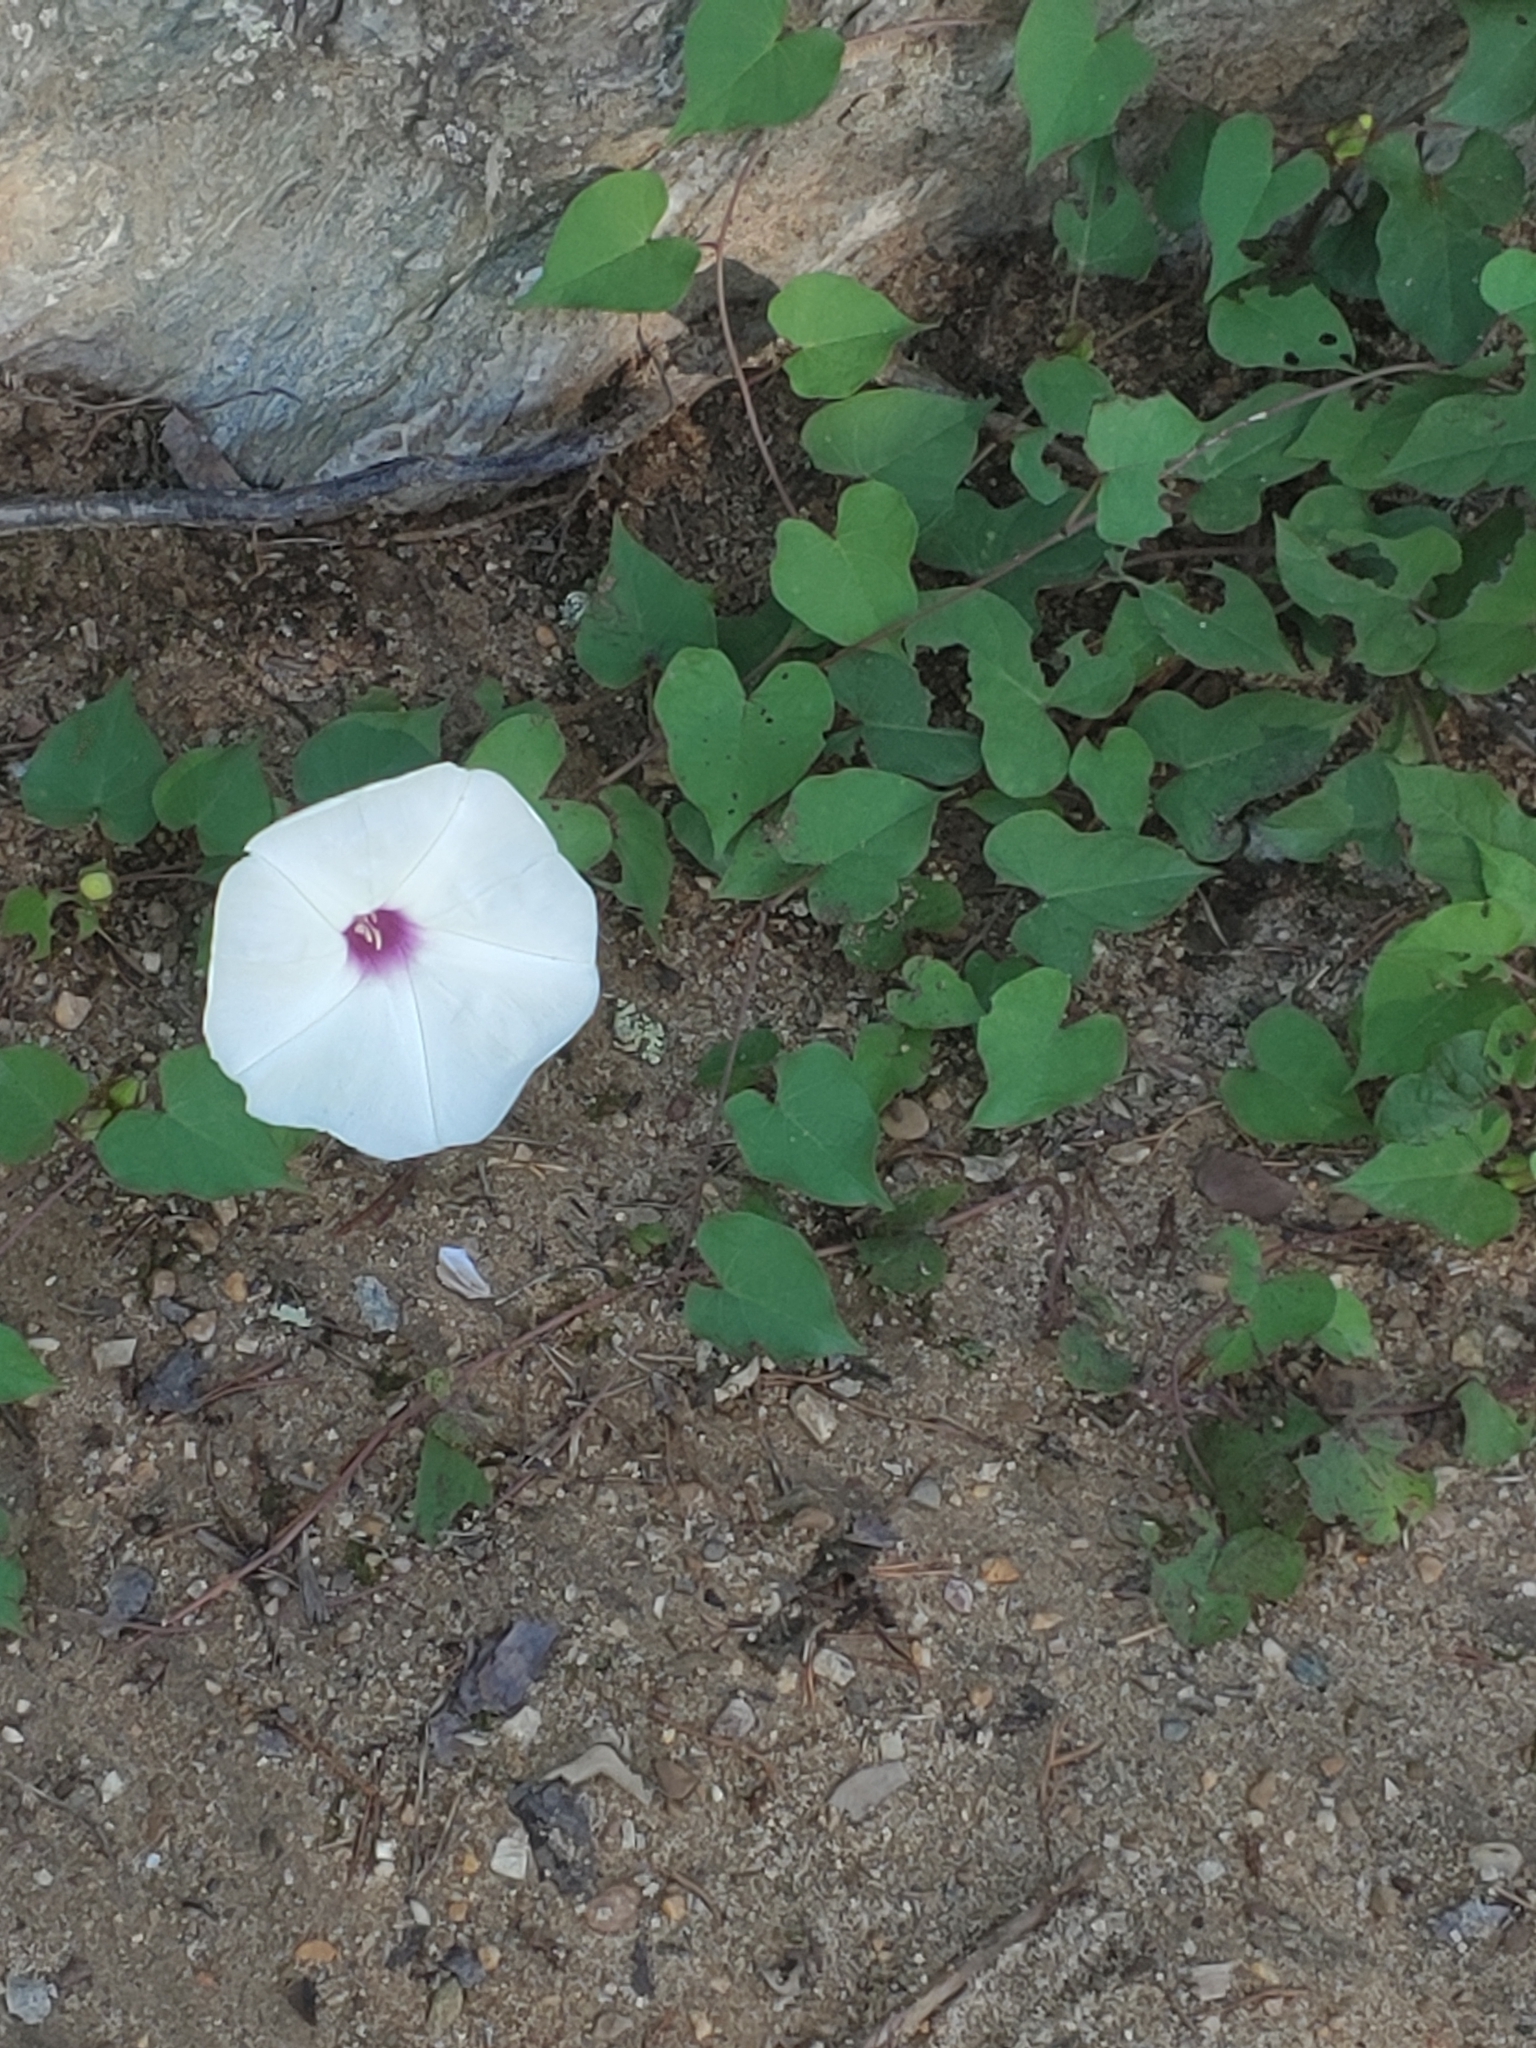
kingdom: Plantae
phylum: Tracheophyta
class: Magnoliopsida
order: Solanales
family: Convolvulaceae
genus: Ipomoea
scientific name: Ipomoea pandurata
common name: Man-of-the-earth
